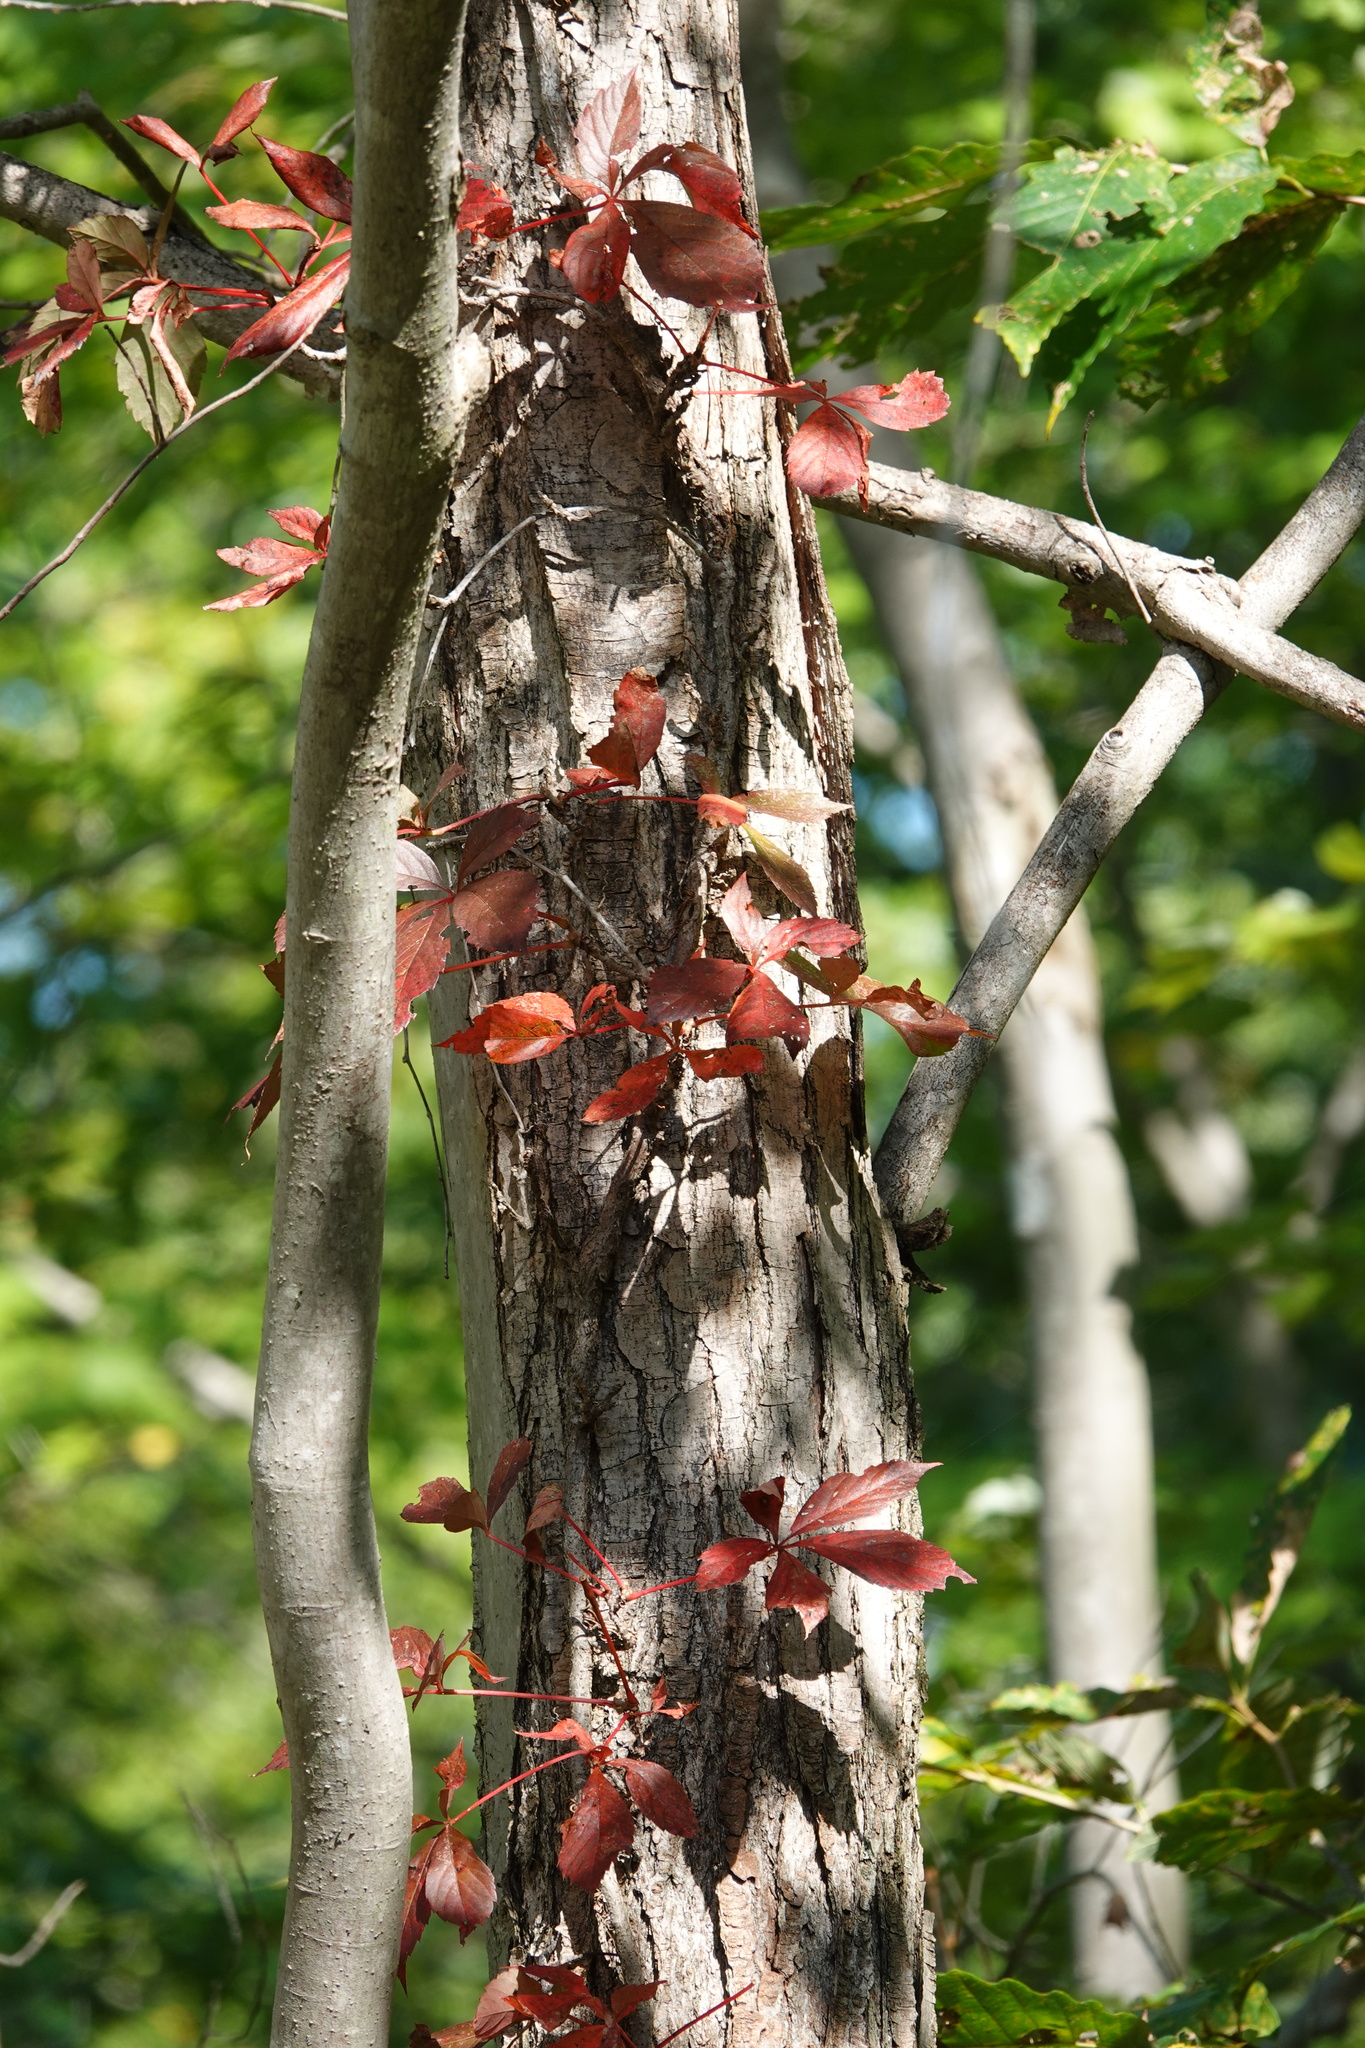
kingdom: Plantae
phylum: Tracheophyta
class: Magnoliopsida
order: Vitales
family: Vitaceae
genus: Parthenocissus
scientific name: Parthenocissus quinquefolia
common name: Virginia-creeper
